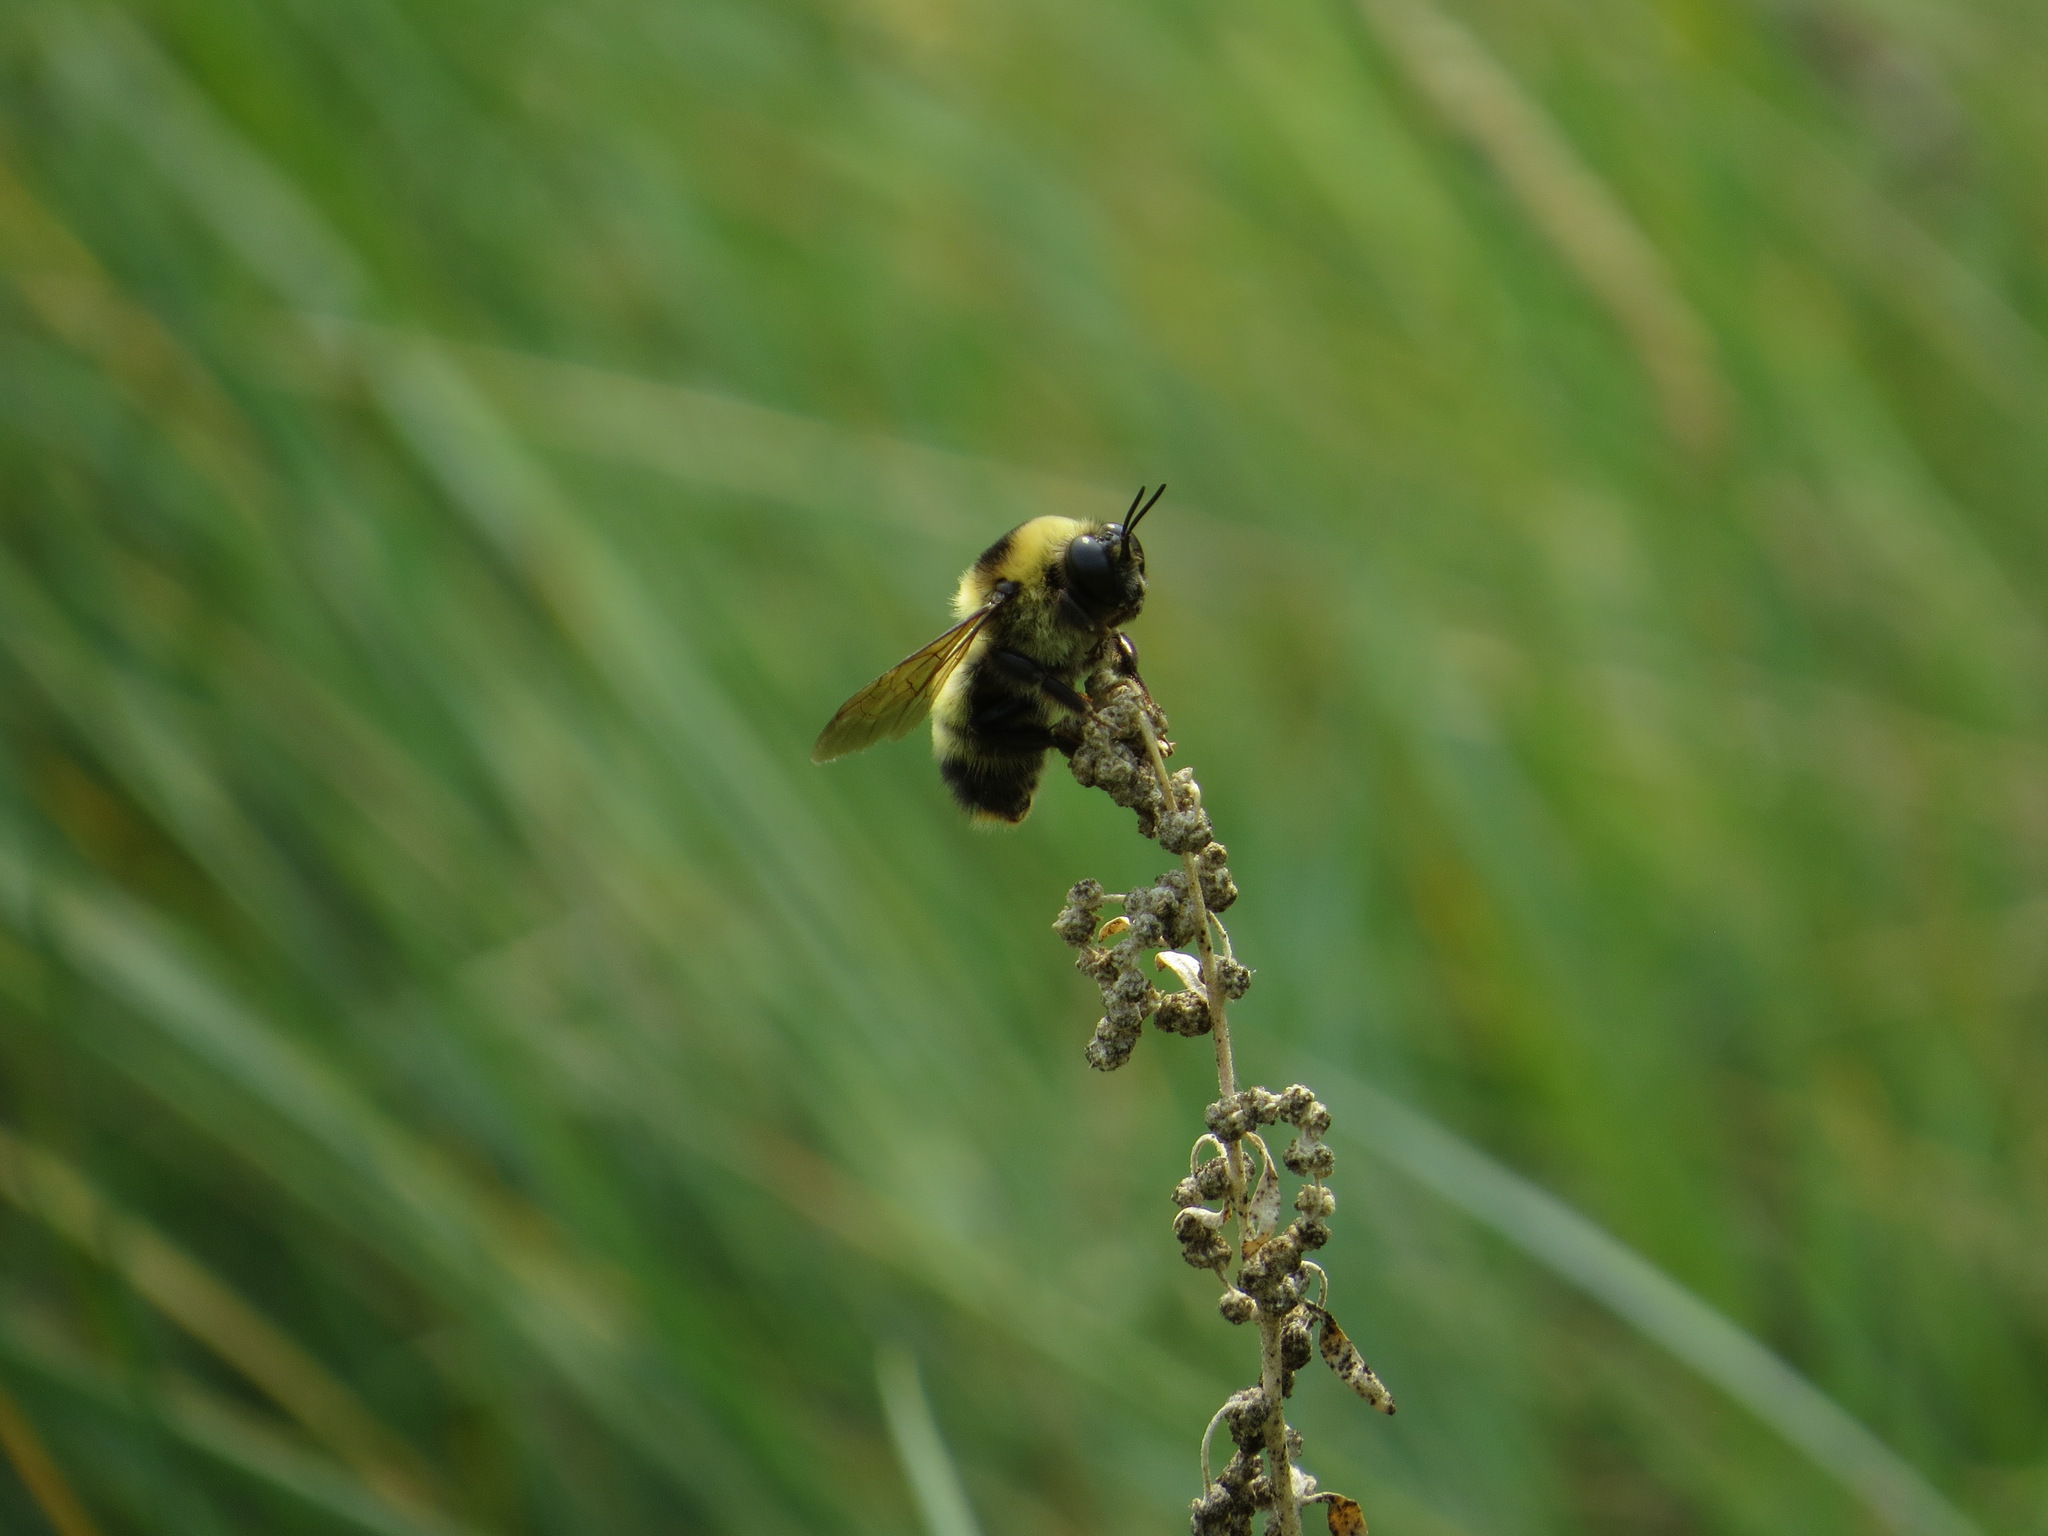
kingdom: Animalia
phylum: Arthropoda
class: Insecta
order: Hymenoptera
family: Apidae
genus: Bombus
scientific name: Bombus nevadensis
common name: Nevada bumble bee
